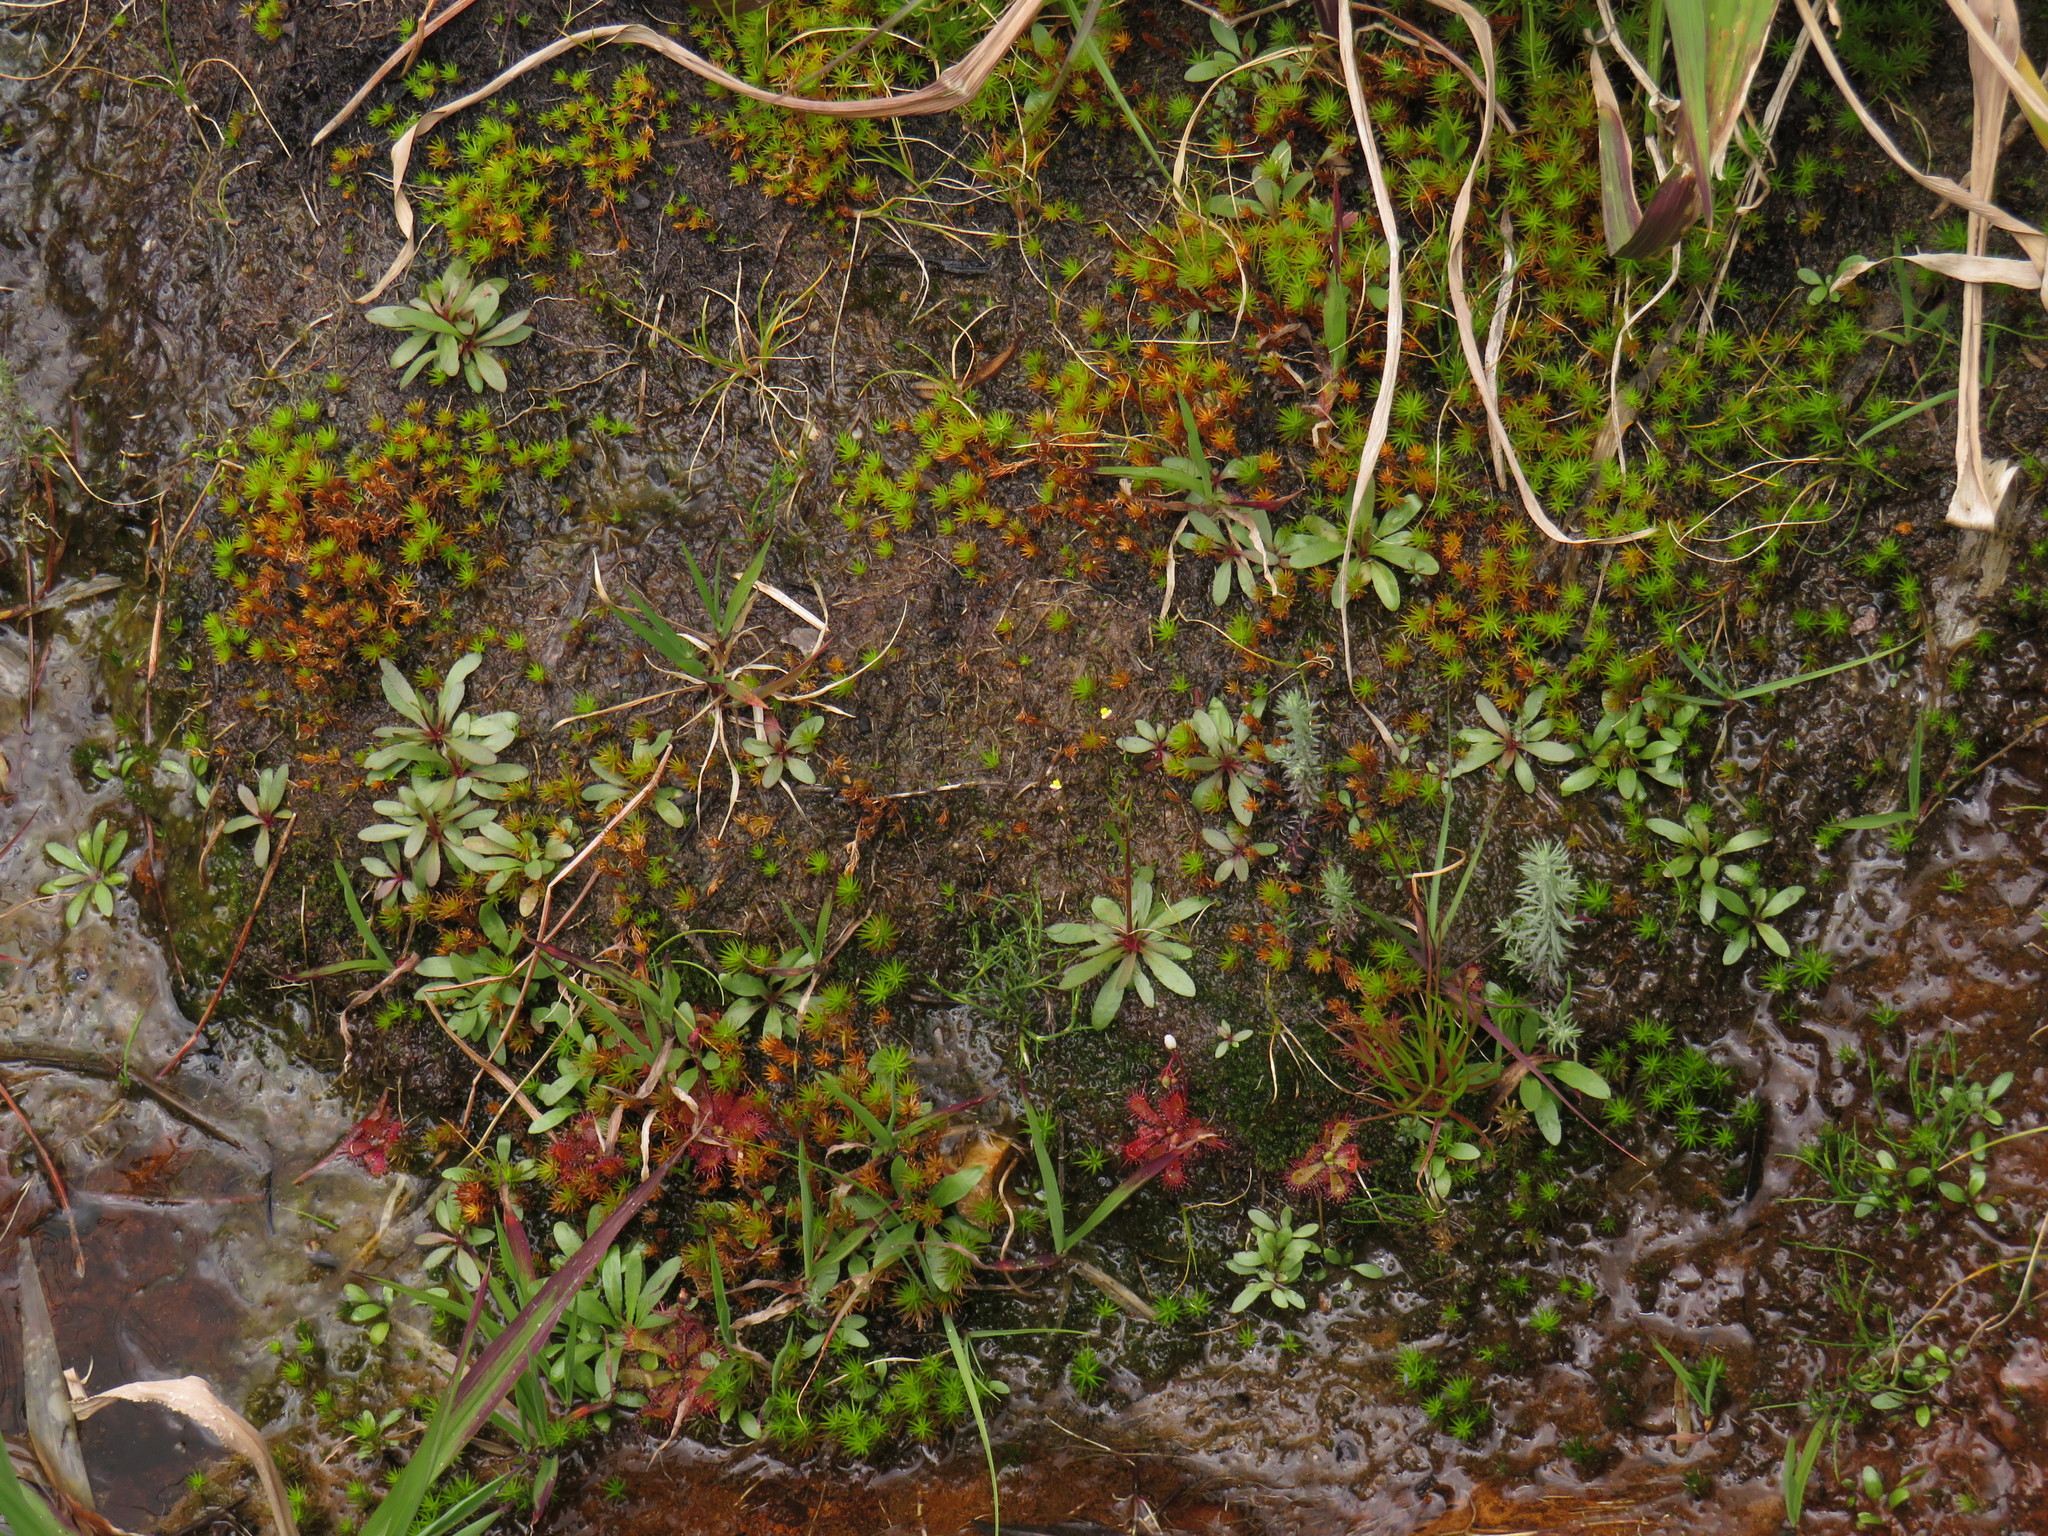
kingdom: Plantae
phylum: Tracheophyta
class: Magnoliopsida
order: Asterales
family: Campanulaceae
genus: Wimmerella
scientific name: Wimmerella arabidea
